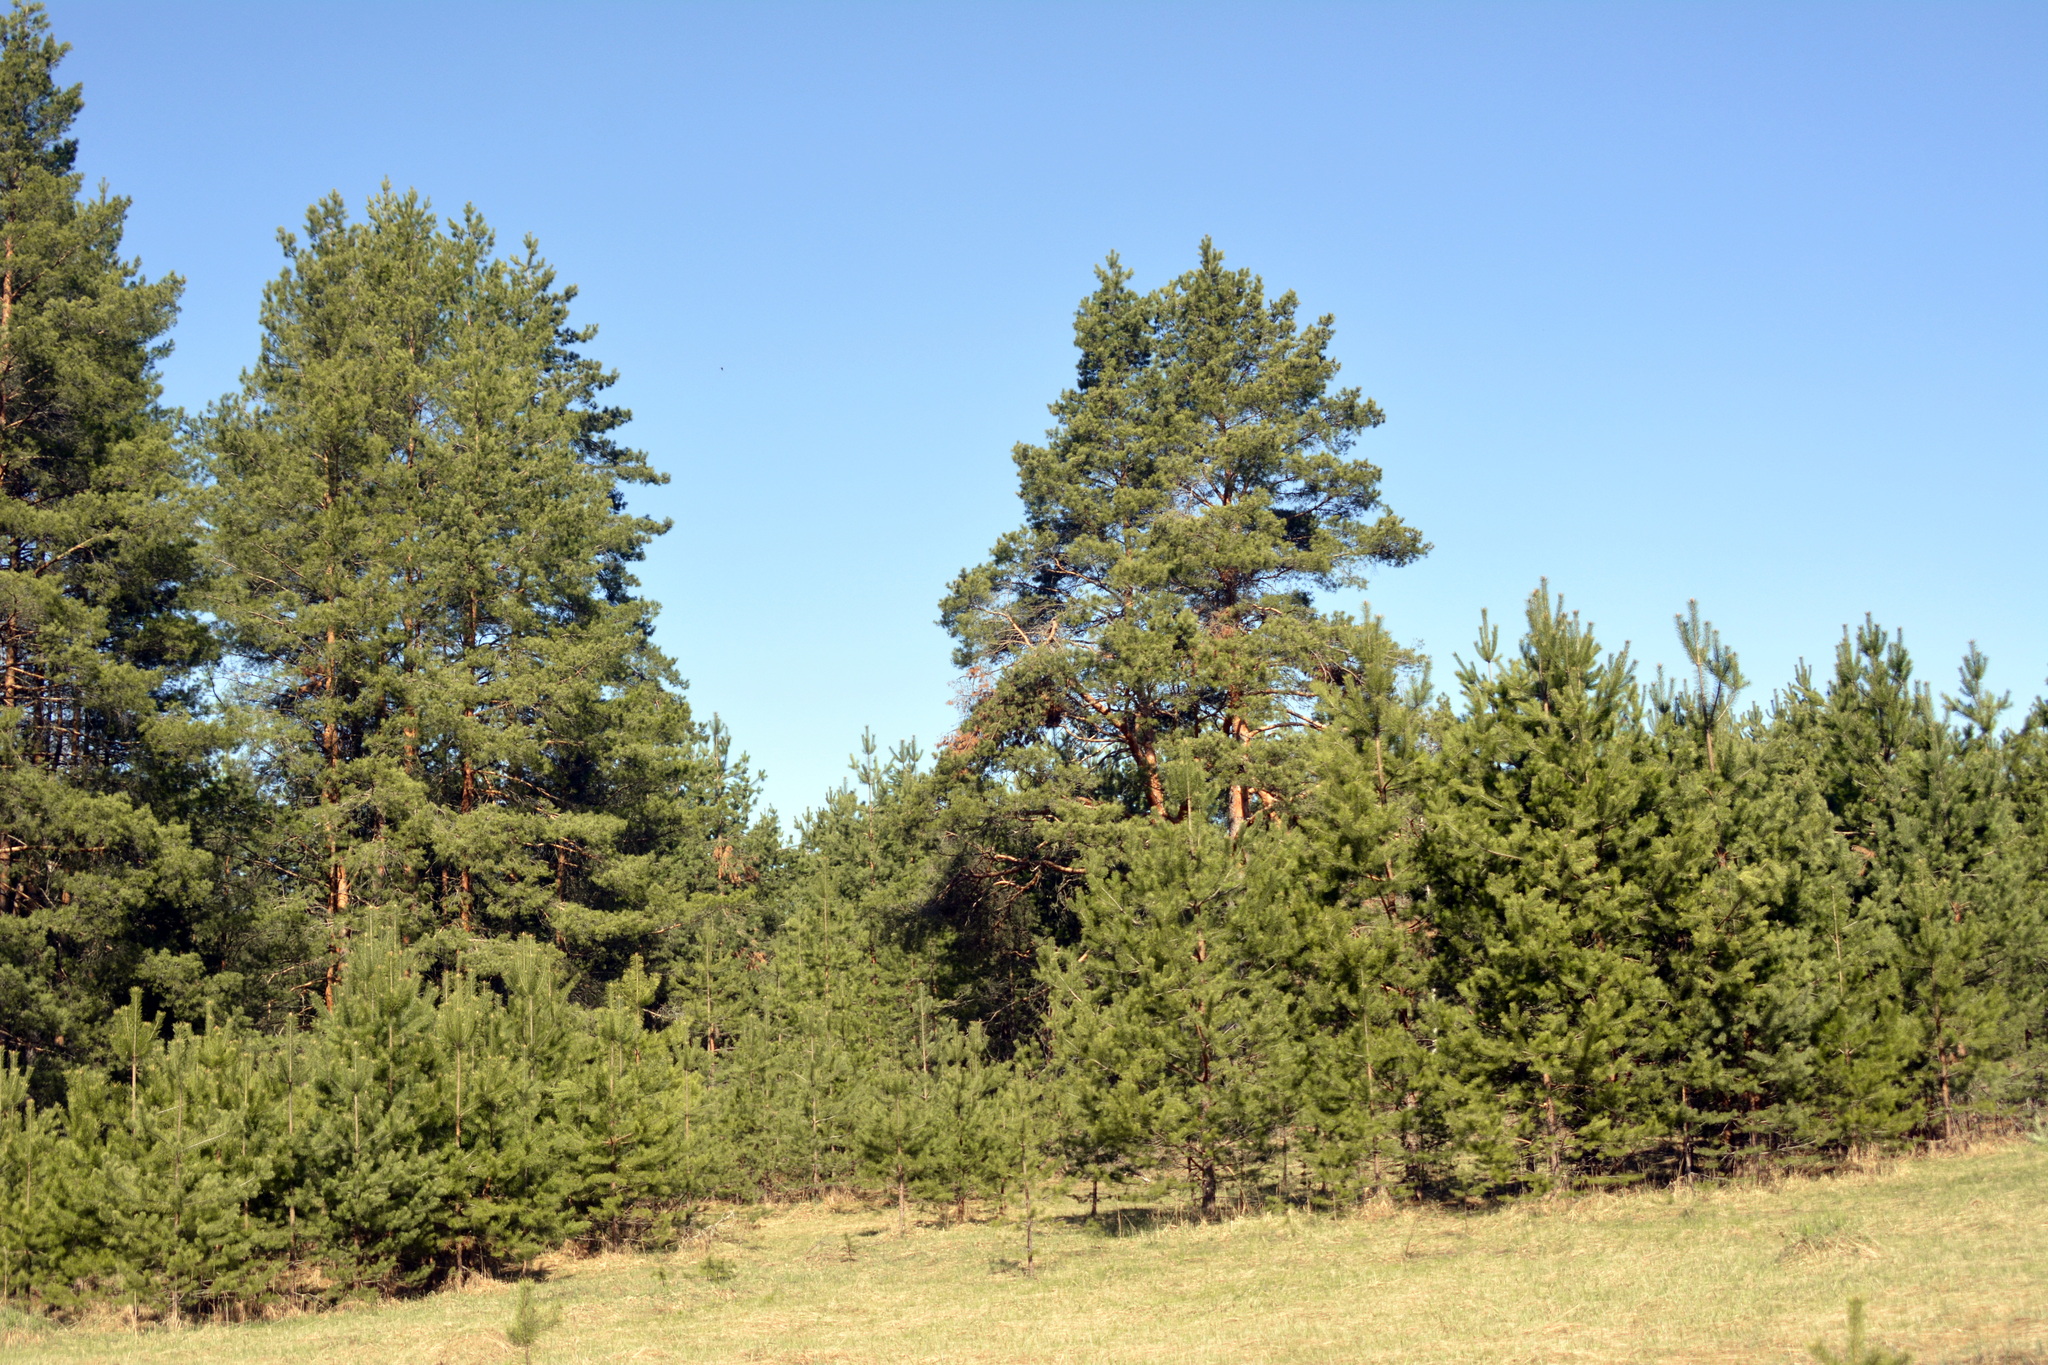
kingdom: Plantae
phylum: Tracheophyta
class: Pinopsida
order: Pinales
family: Pinaceae
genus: Pinus
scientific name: Pinus sylvestris
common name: Scots pine
